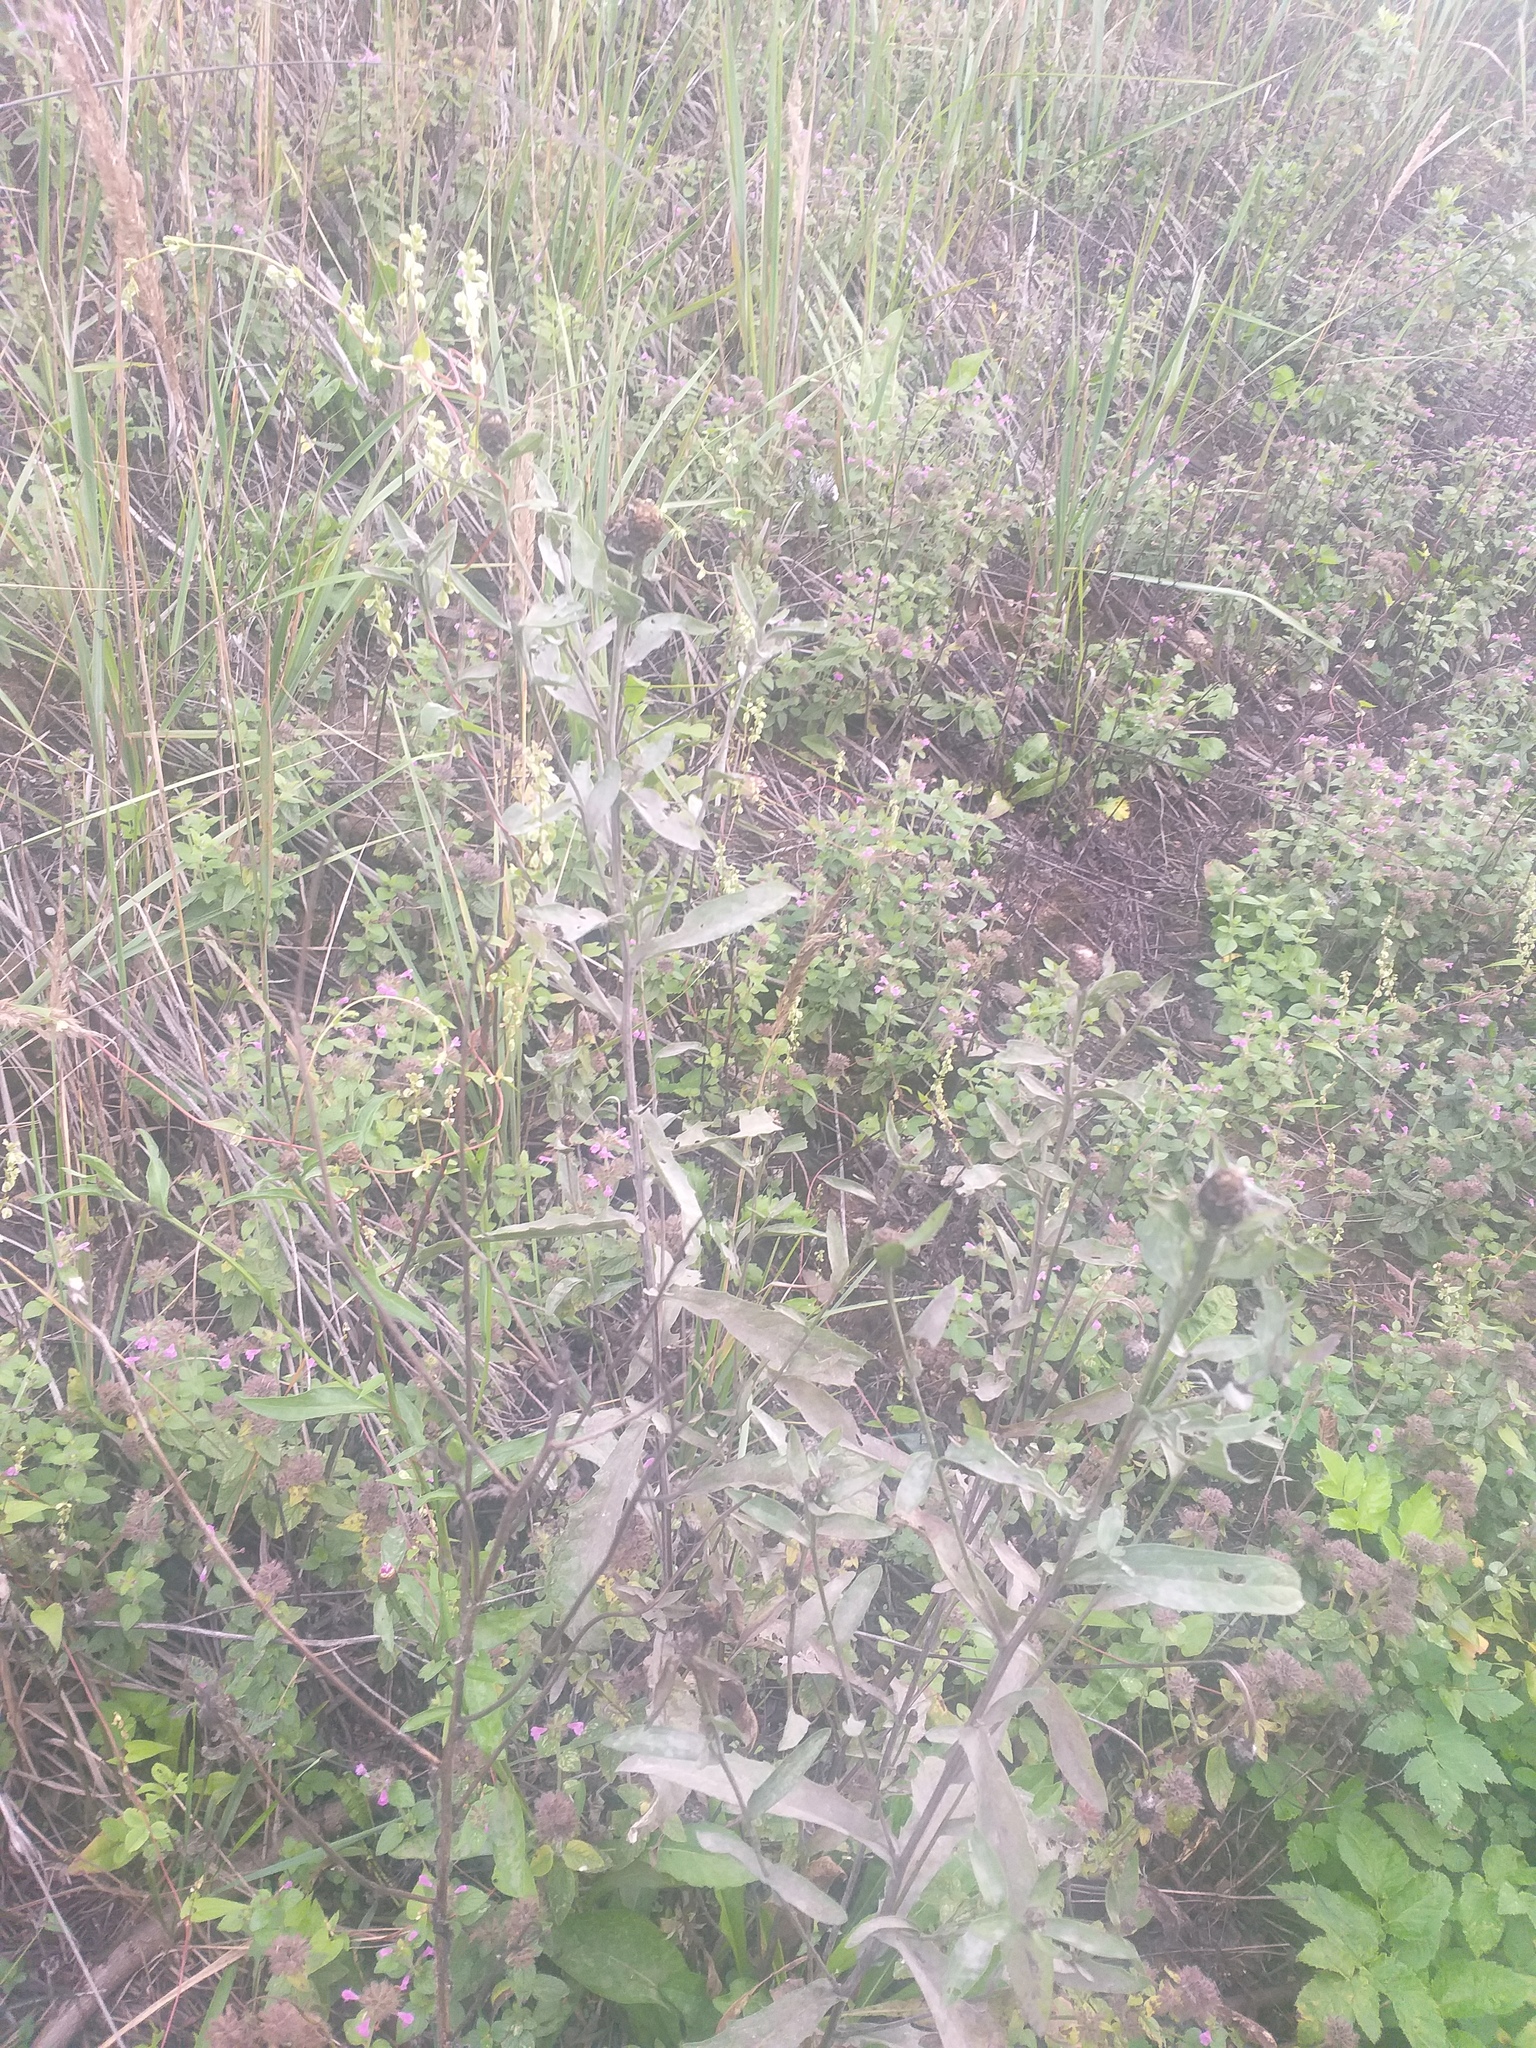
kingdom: Plantae
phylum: Tracheophyta
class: Magnoliopsida
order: Asterales
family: Asteraceae
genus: Centaurea
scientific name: Centaurea jacea
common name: Brown knapweed
